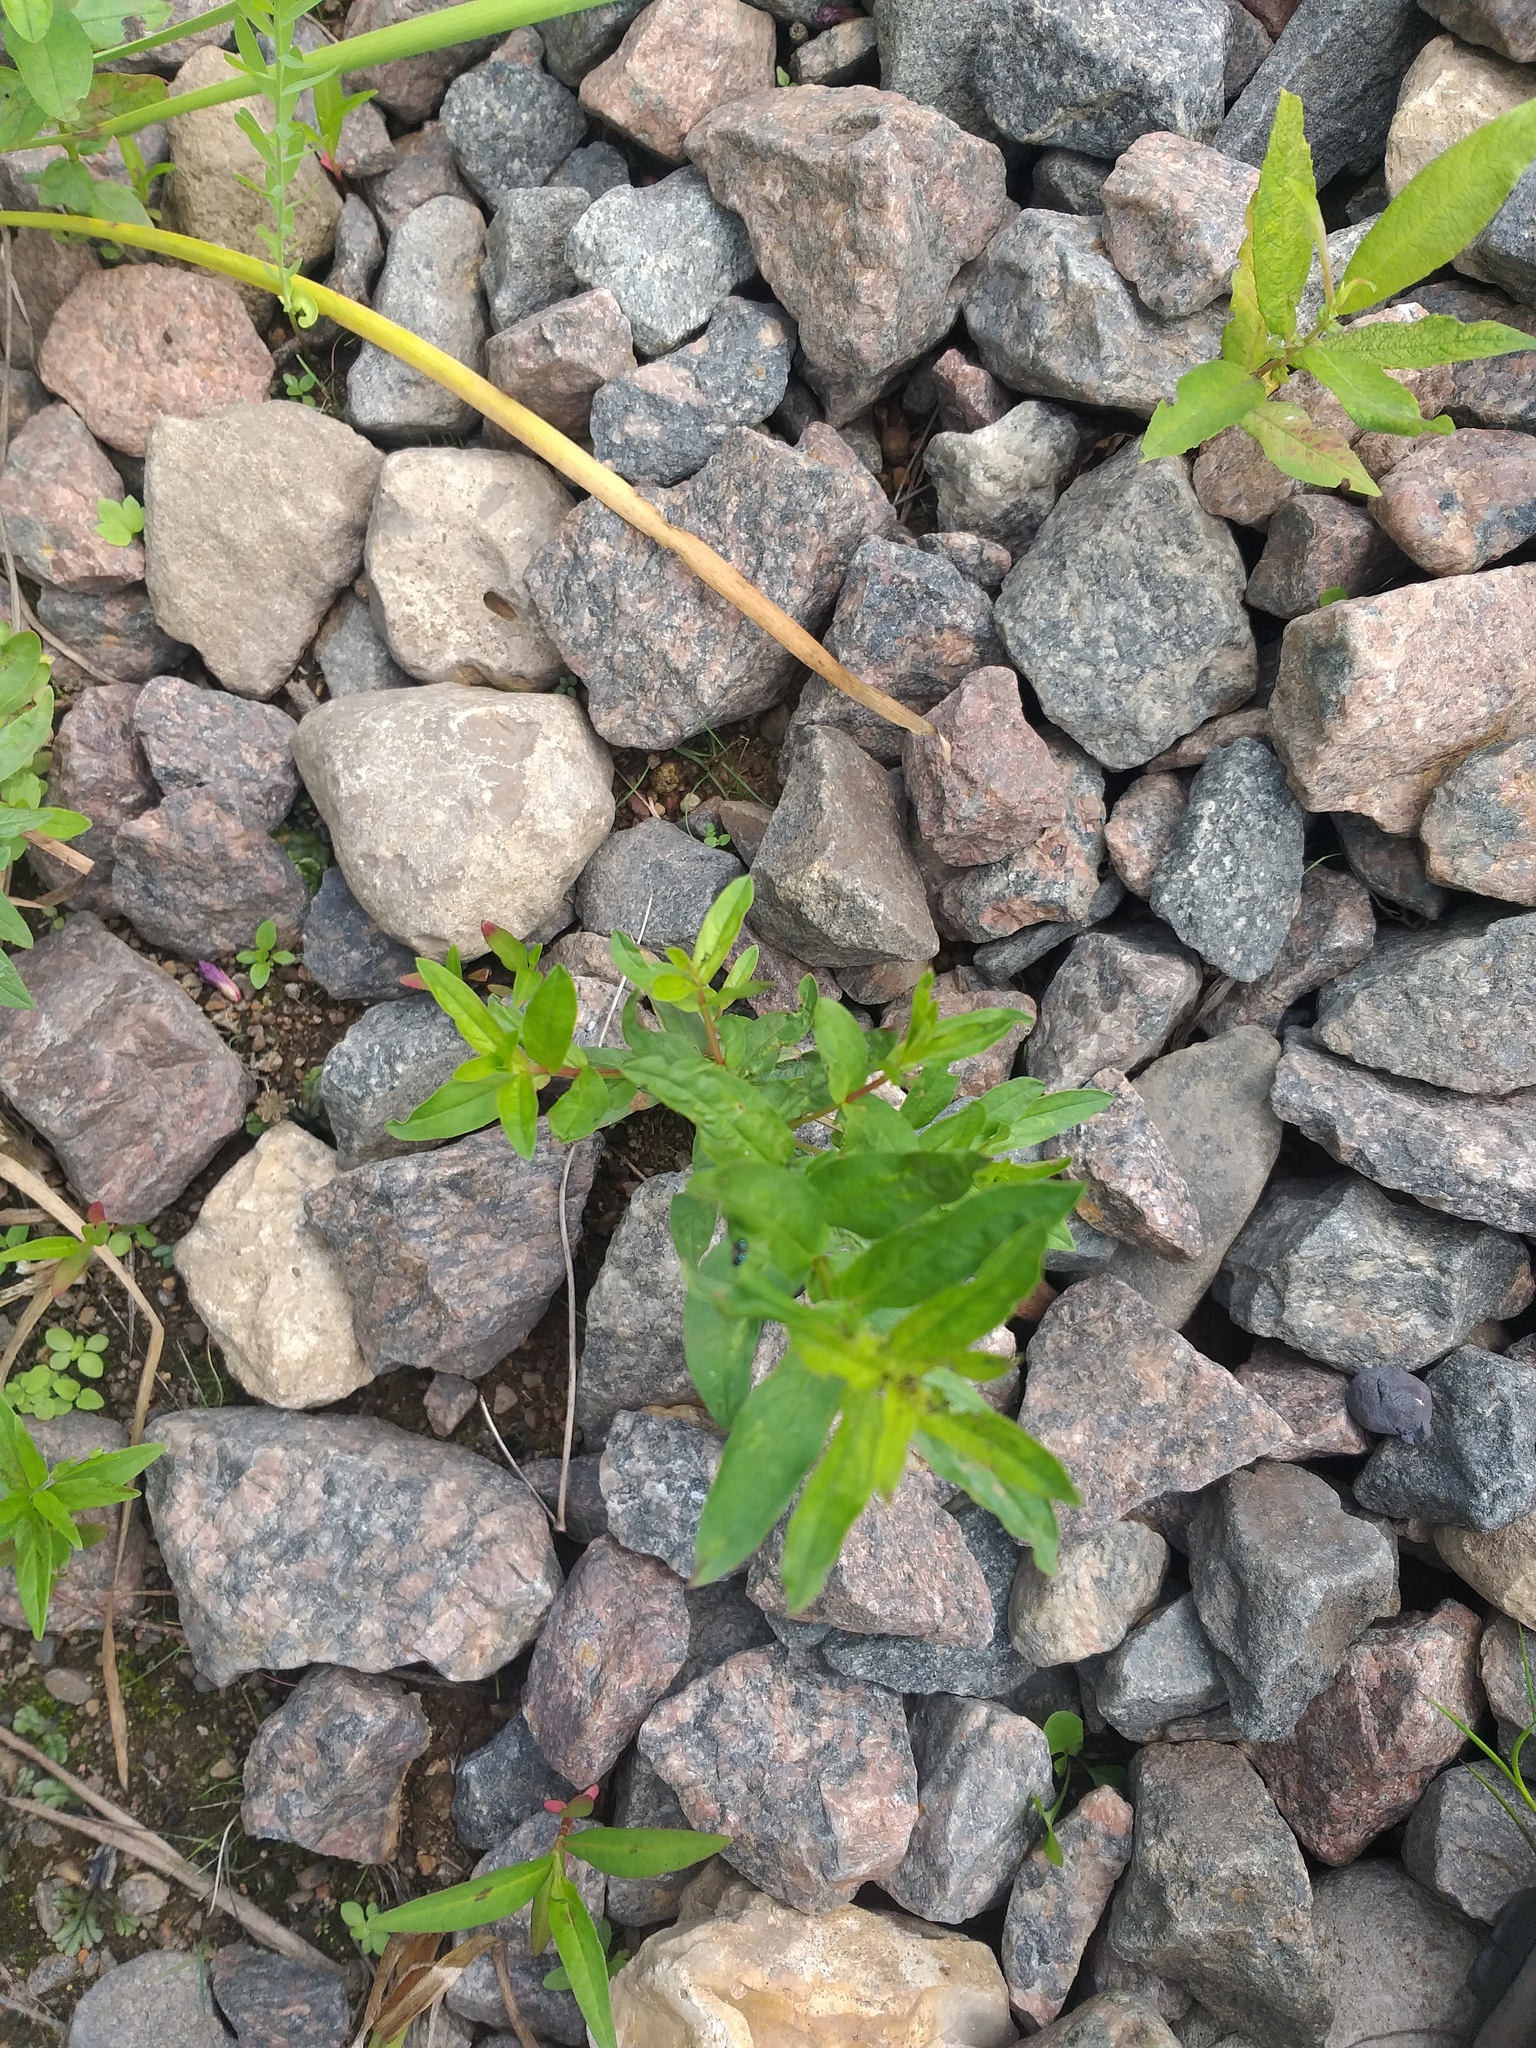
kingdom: Plantae
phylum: Tracheophyta
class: Magnoliopsida
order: Myrtales
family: Lythraceae
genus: Lythrum
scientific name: Lythrum salicaria
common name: Purple loosestrife
